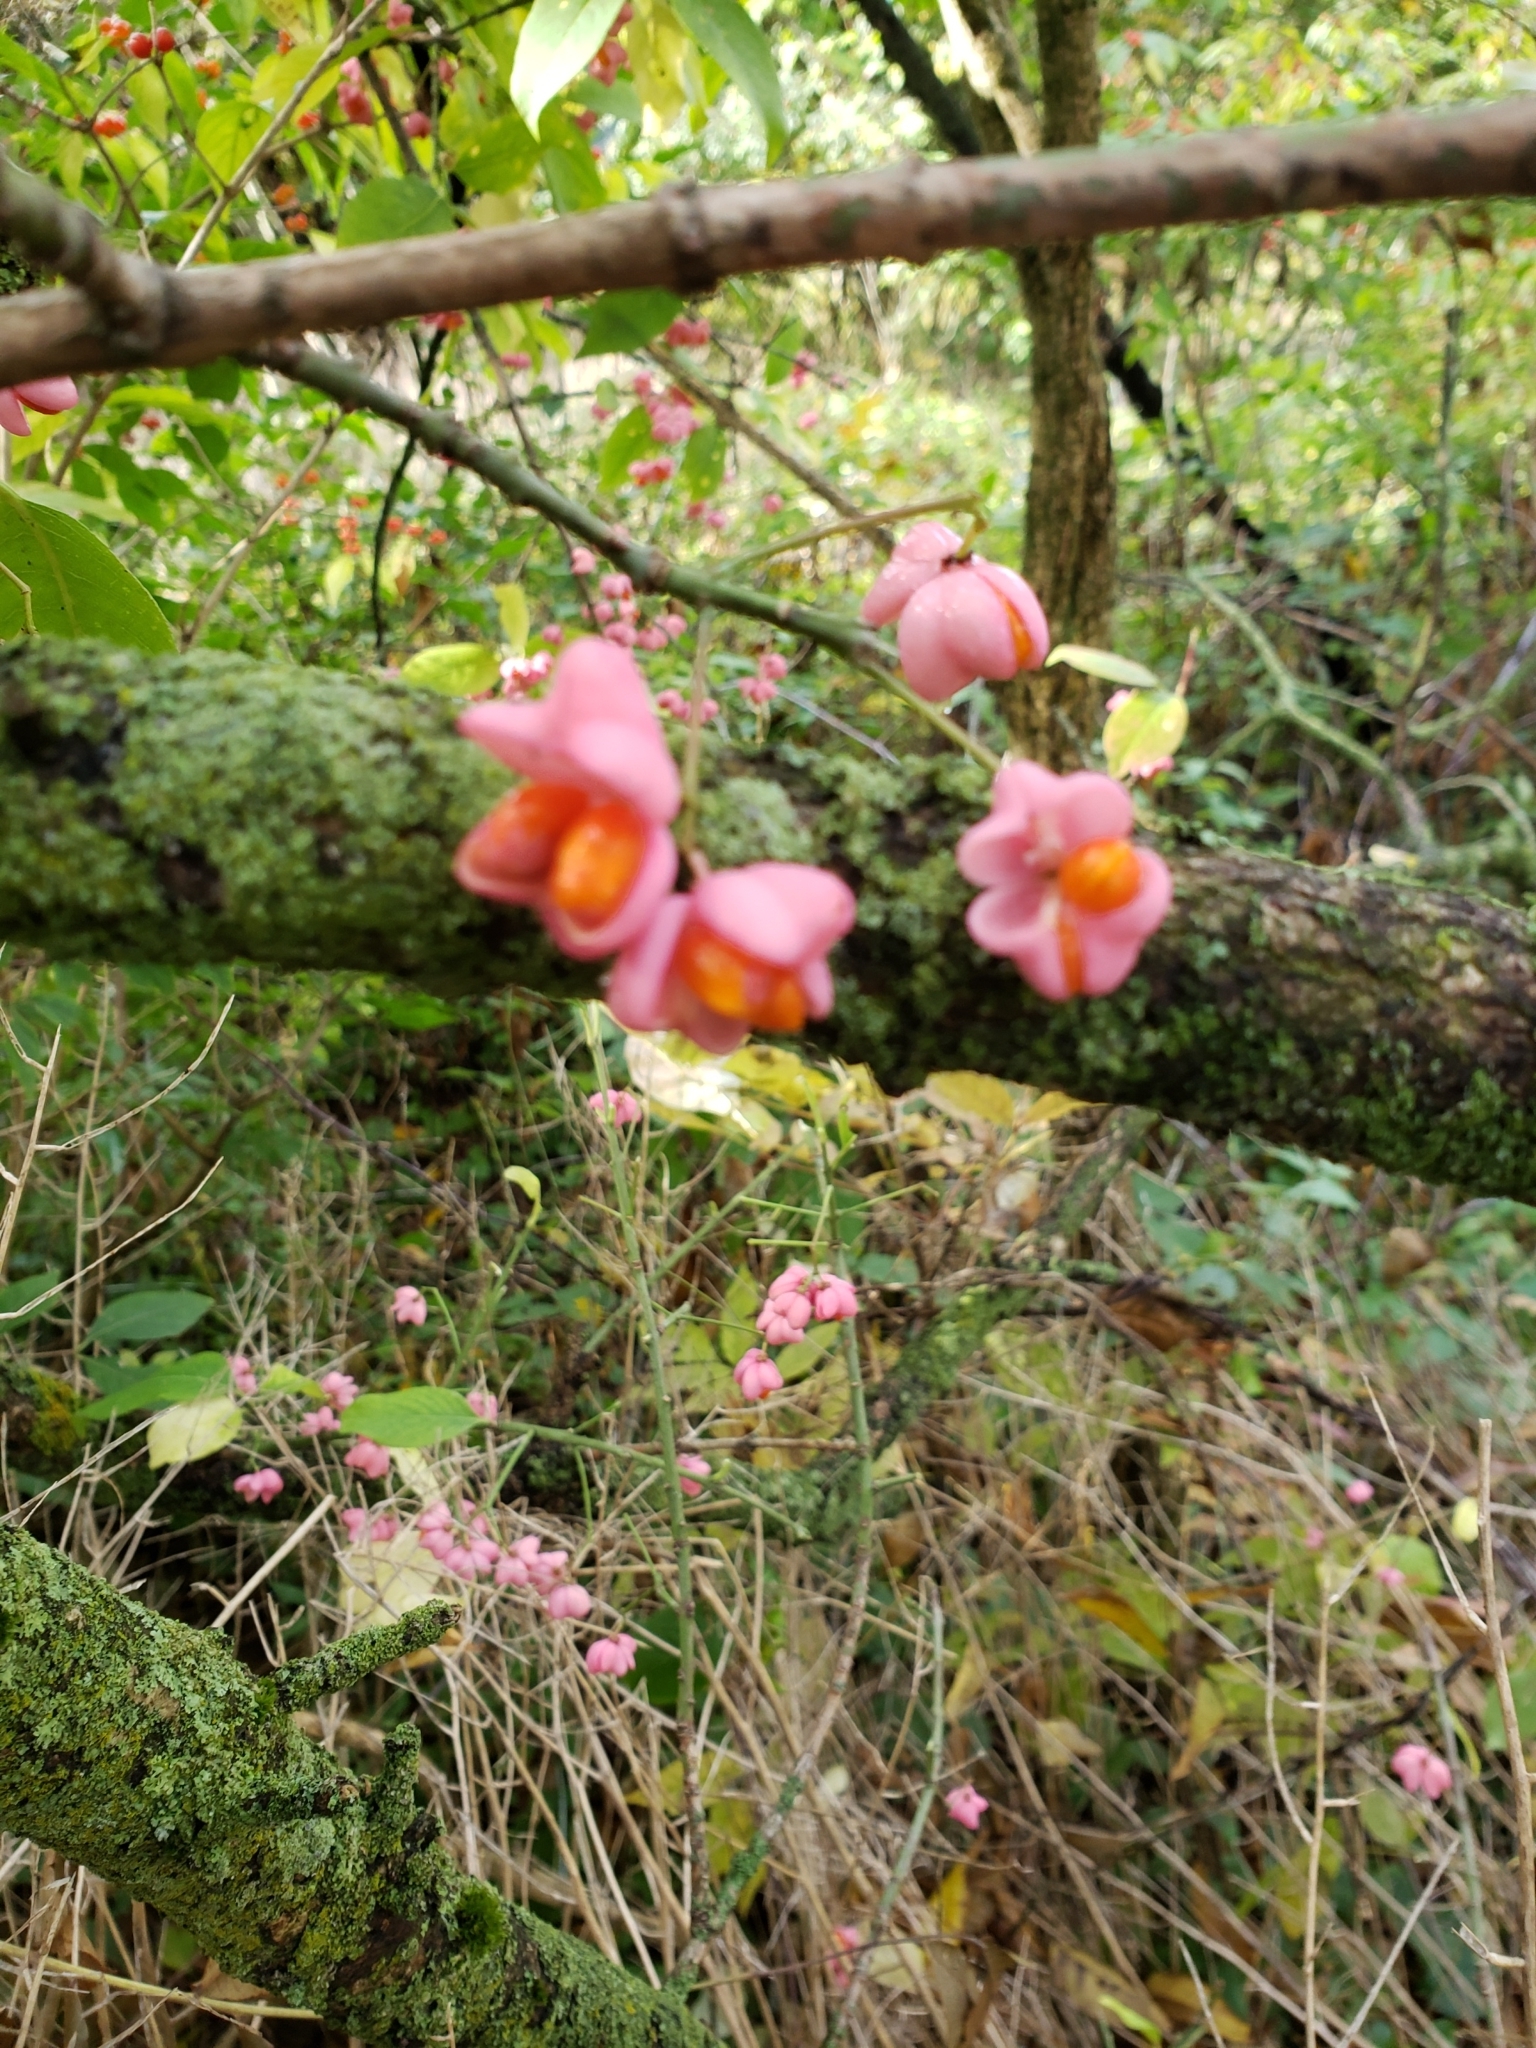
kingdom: Plantae
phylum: Tracheophyta
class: Magnoliopsida
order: Celastrales
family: Celastraceae
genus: Euonymus
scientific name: Euonymus europaeus
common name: Spindle
